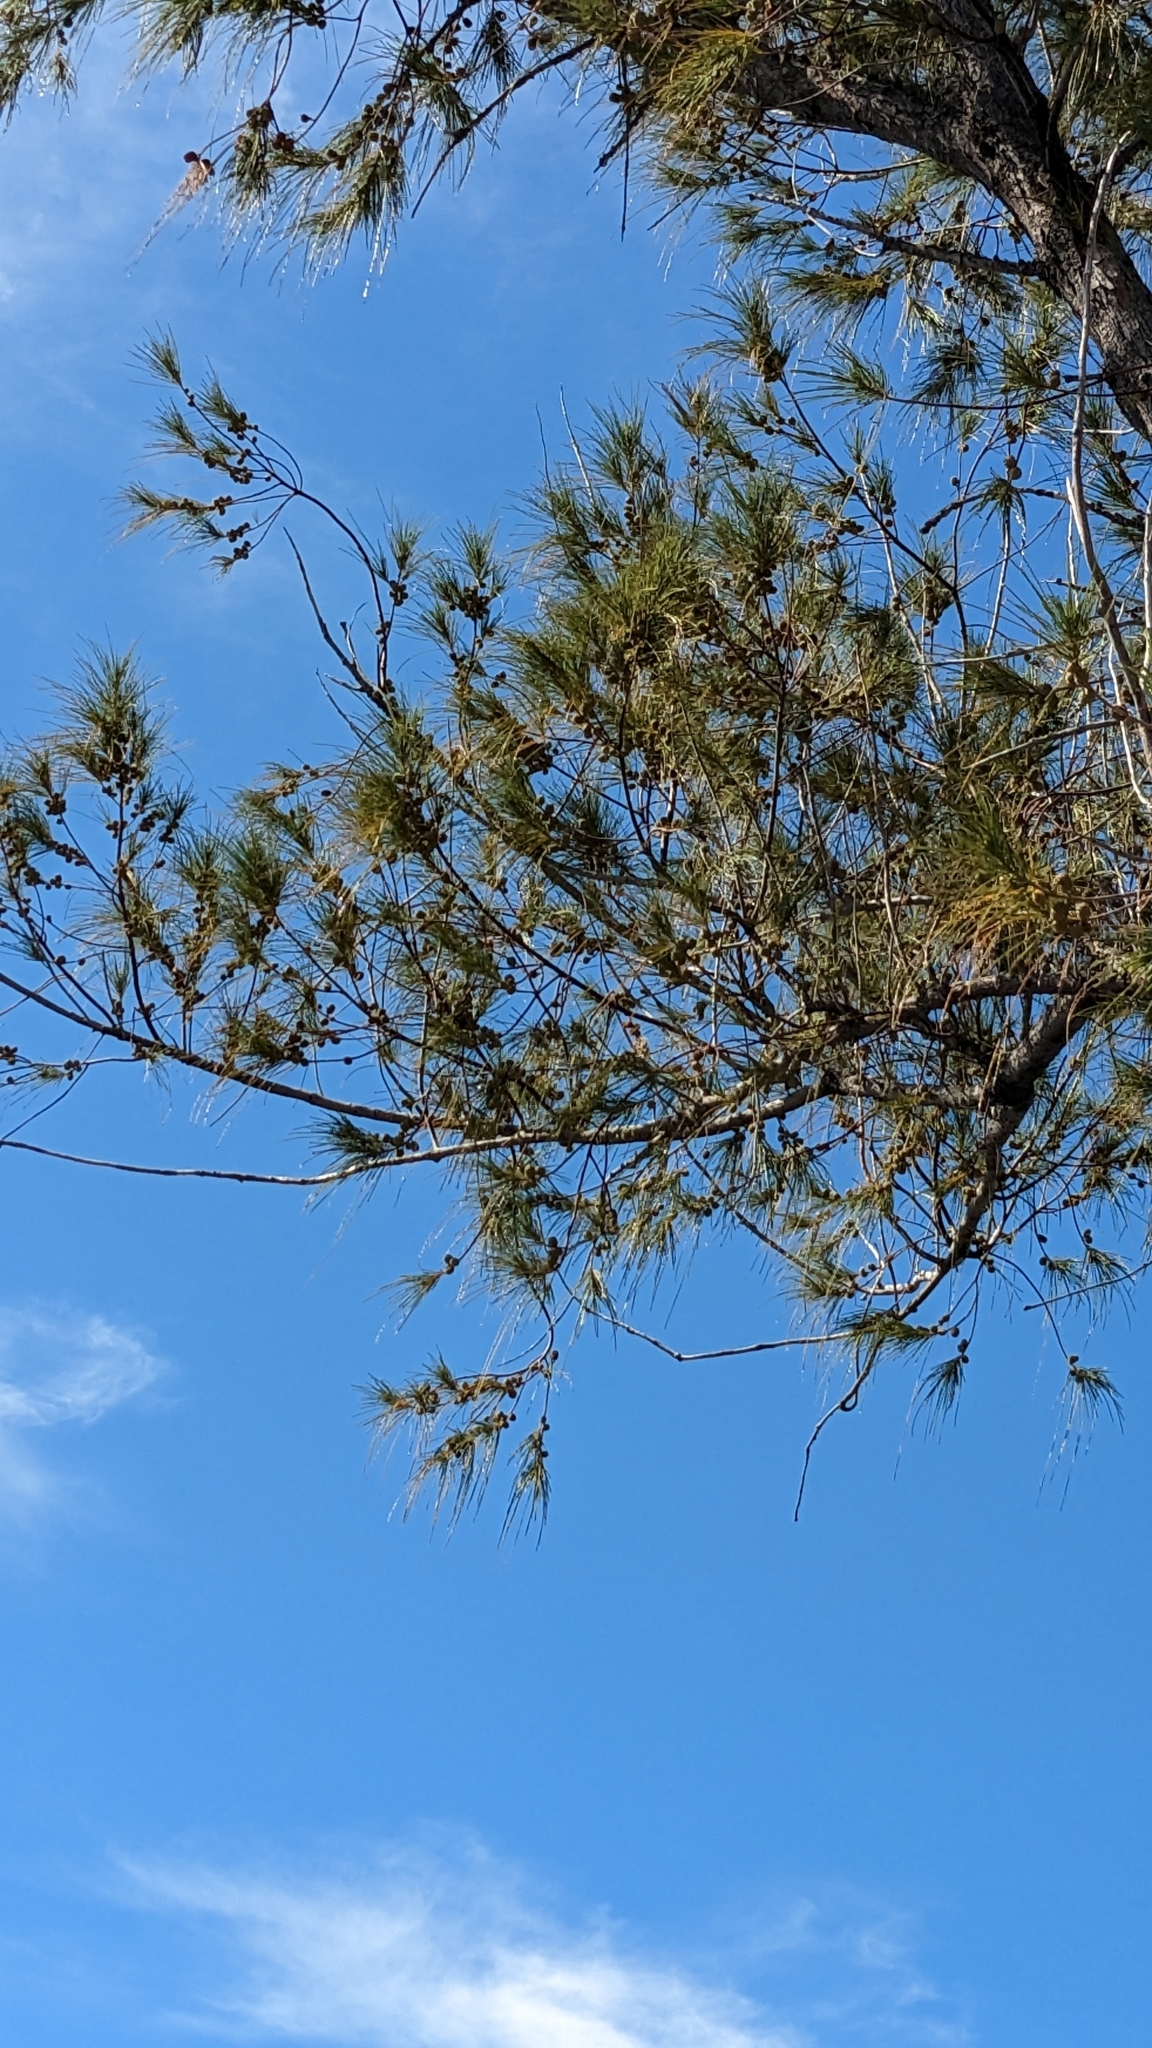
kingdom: Plantae
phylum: Tracheophyta
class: Magnoliopsida
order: Fagales
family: Casuarinaceae
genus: Casuarina
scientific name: Casuarina equisetifolia
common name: Beach sheoak
